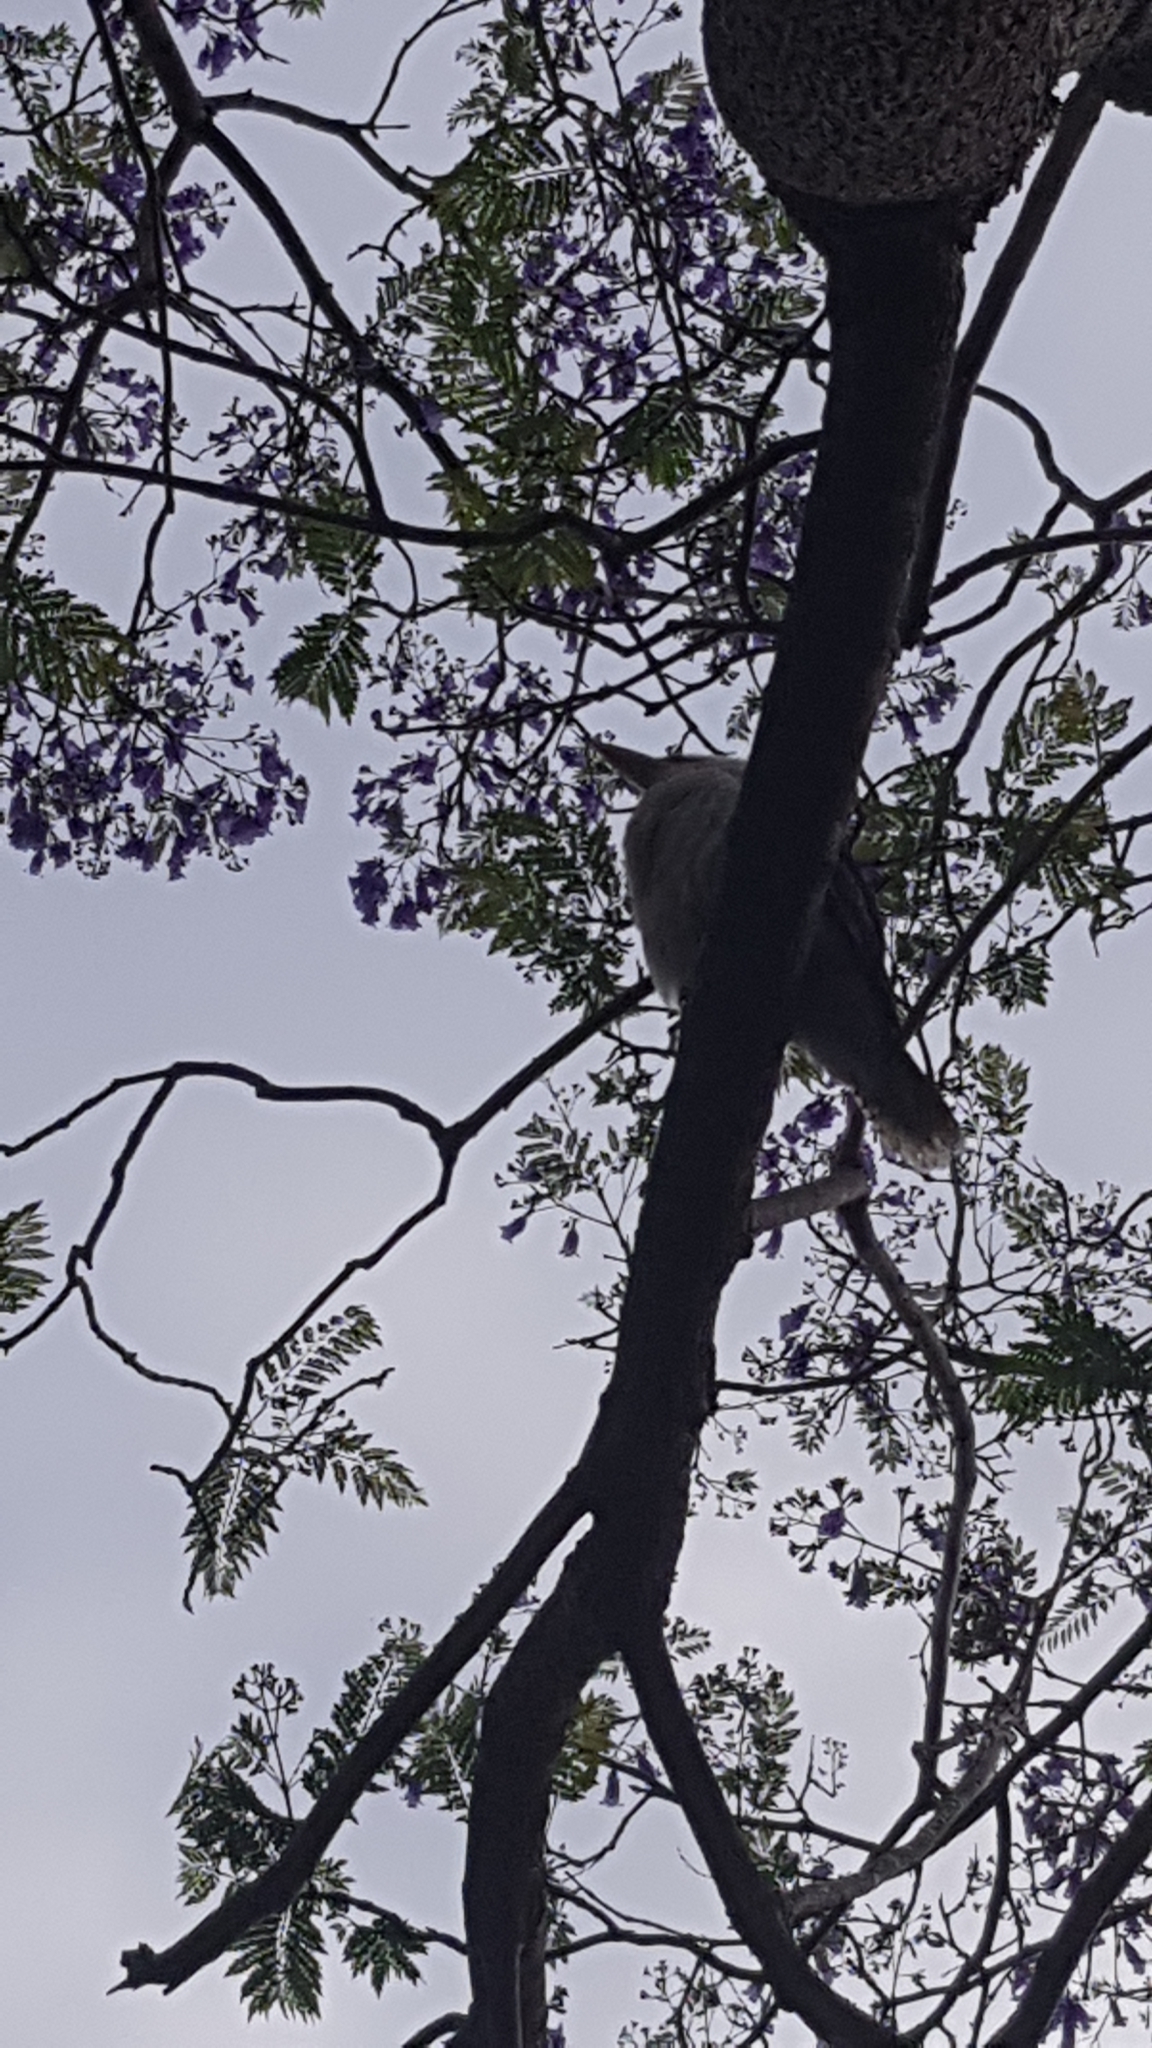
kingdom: Animalia
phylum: Chordata
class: Aves
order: Coraciiformes
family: Alcedinidae
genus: Dacelo
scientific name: Dacelo novaeguineae
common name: Laughing kookaburra
